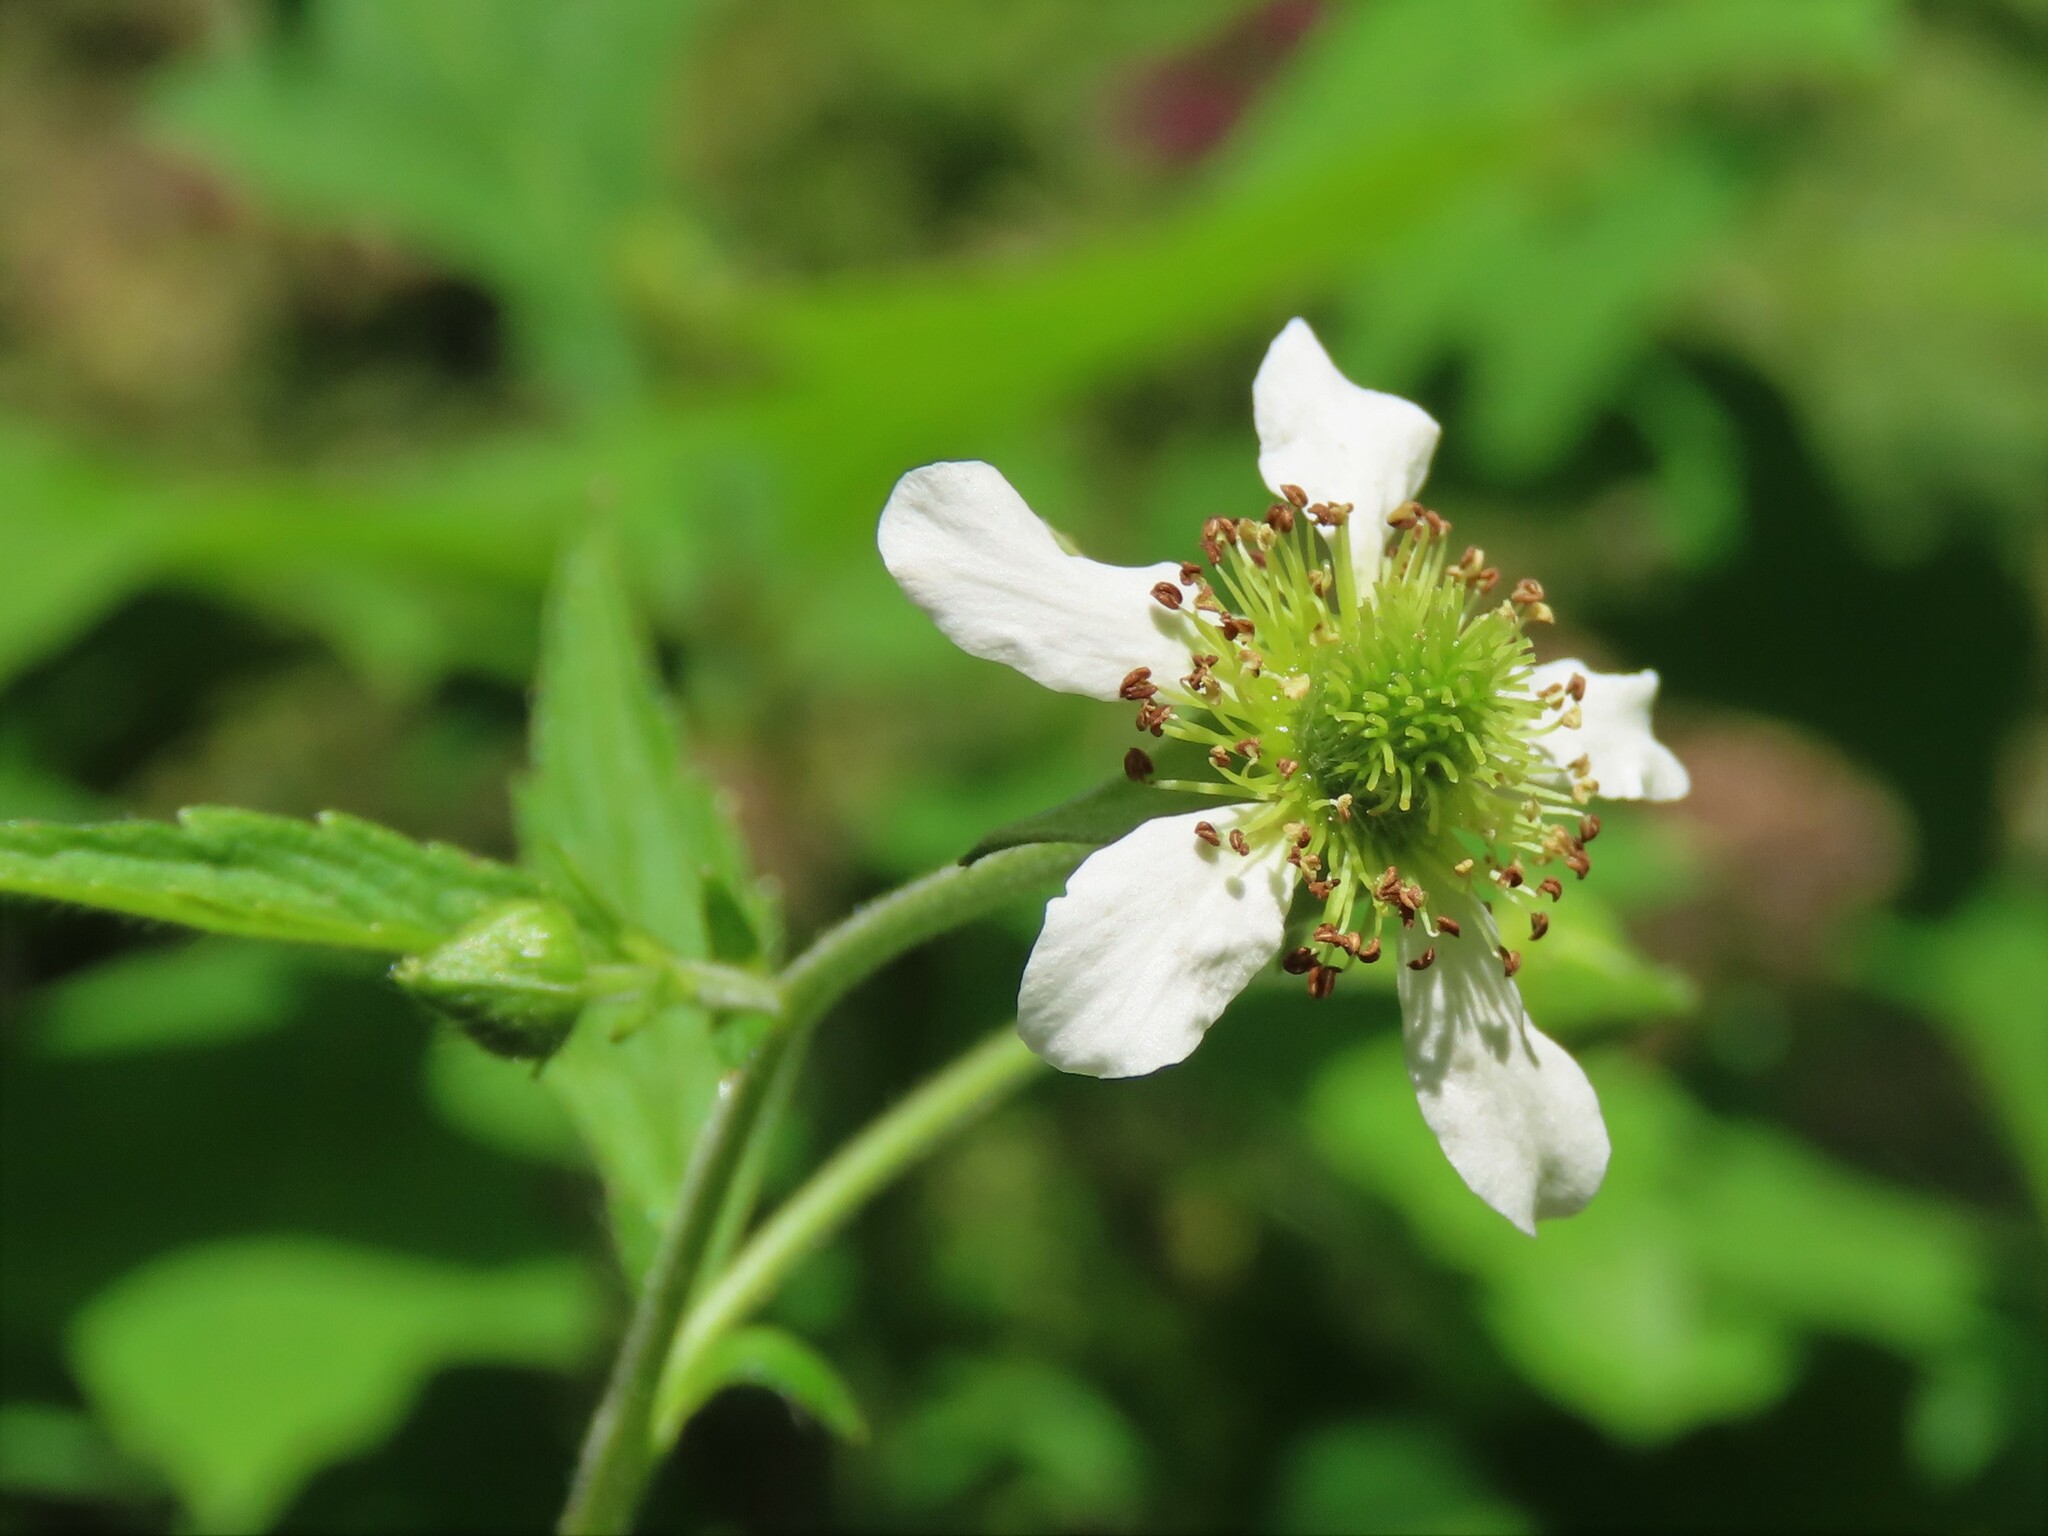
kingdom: Plantae
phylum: Tracheophyta
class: Magnoliopsida
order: Rosales
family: Rosaceae
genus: Geum
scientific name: Geum canadense
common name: White avens
